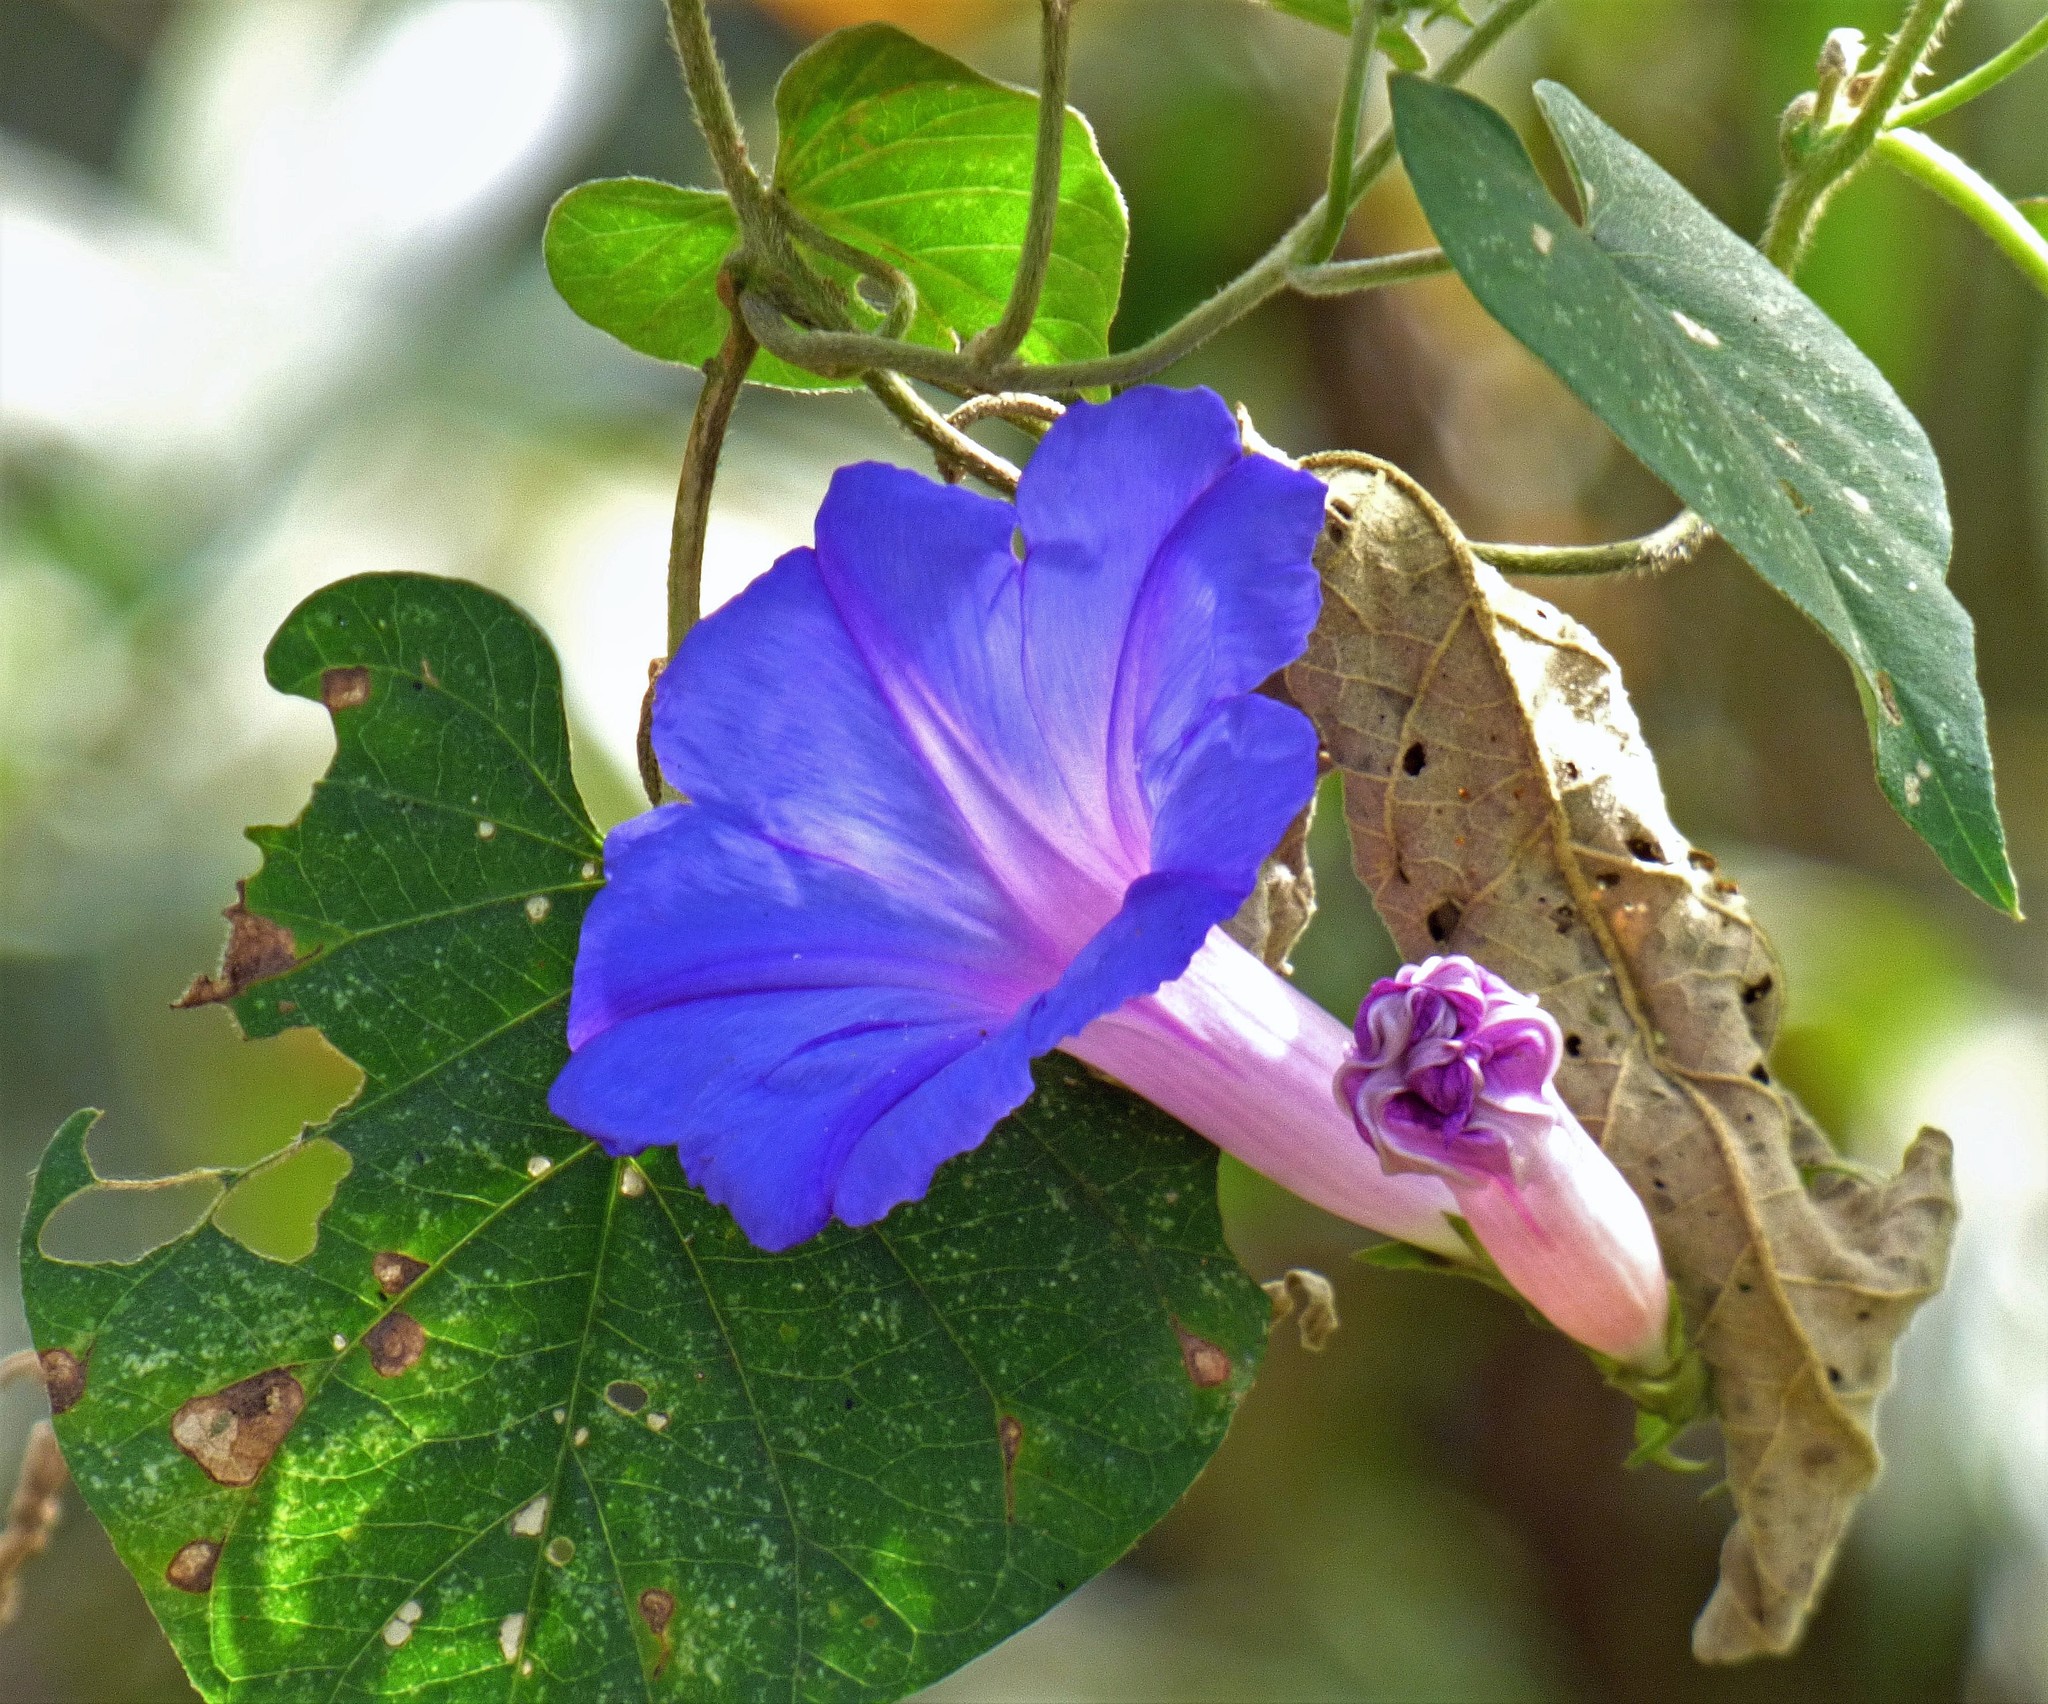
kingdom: Plantae
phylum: Tracheophyta
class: Magnoliopsida
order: Solanales
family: Convolvulaceae
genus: Ipomoea
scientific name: Ipomoea indica
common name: Blue dawnflower
